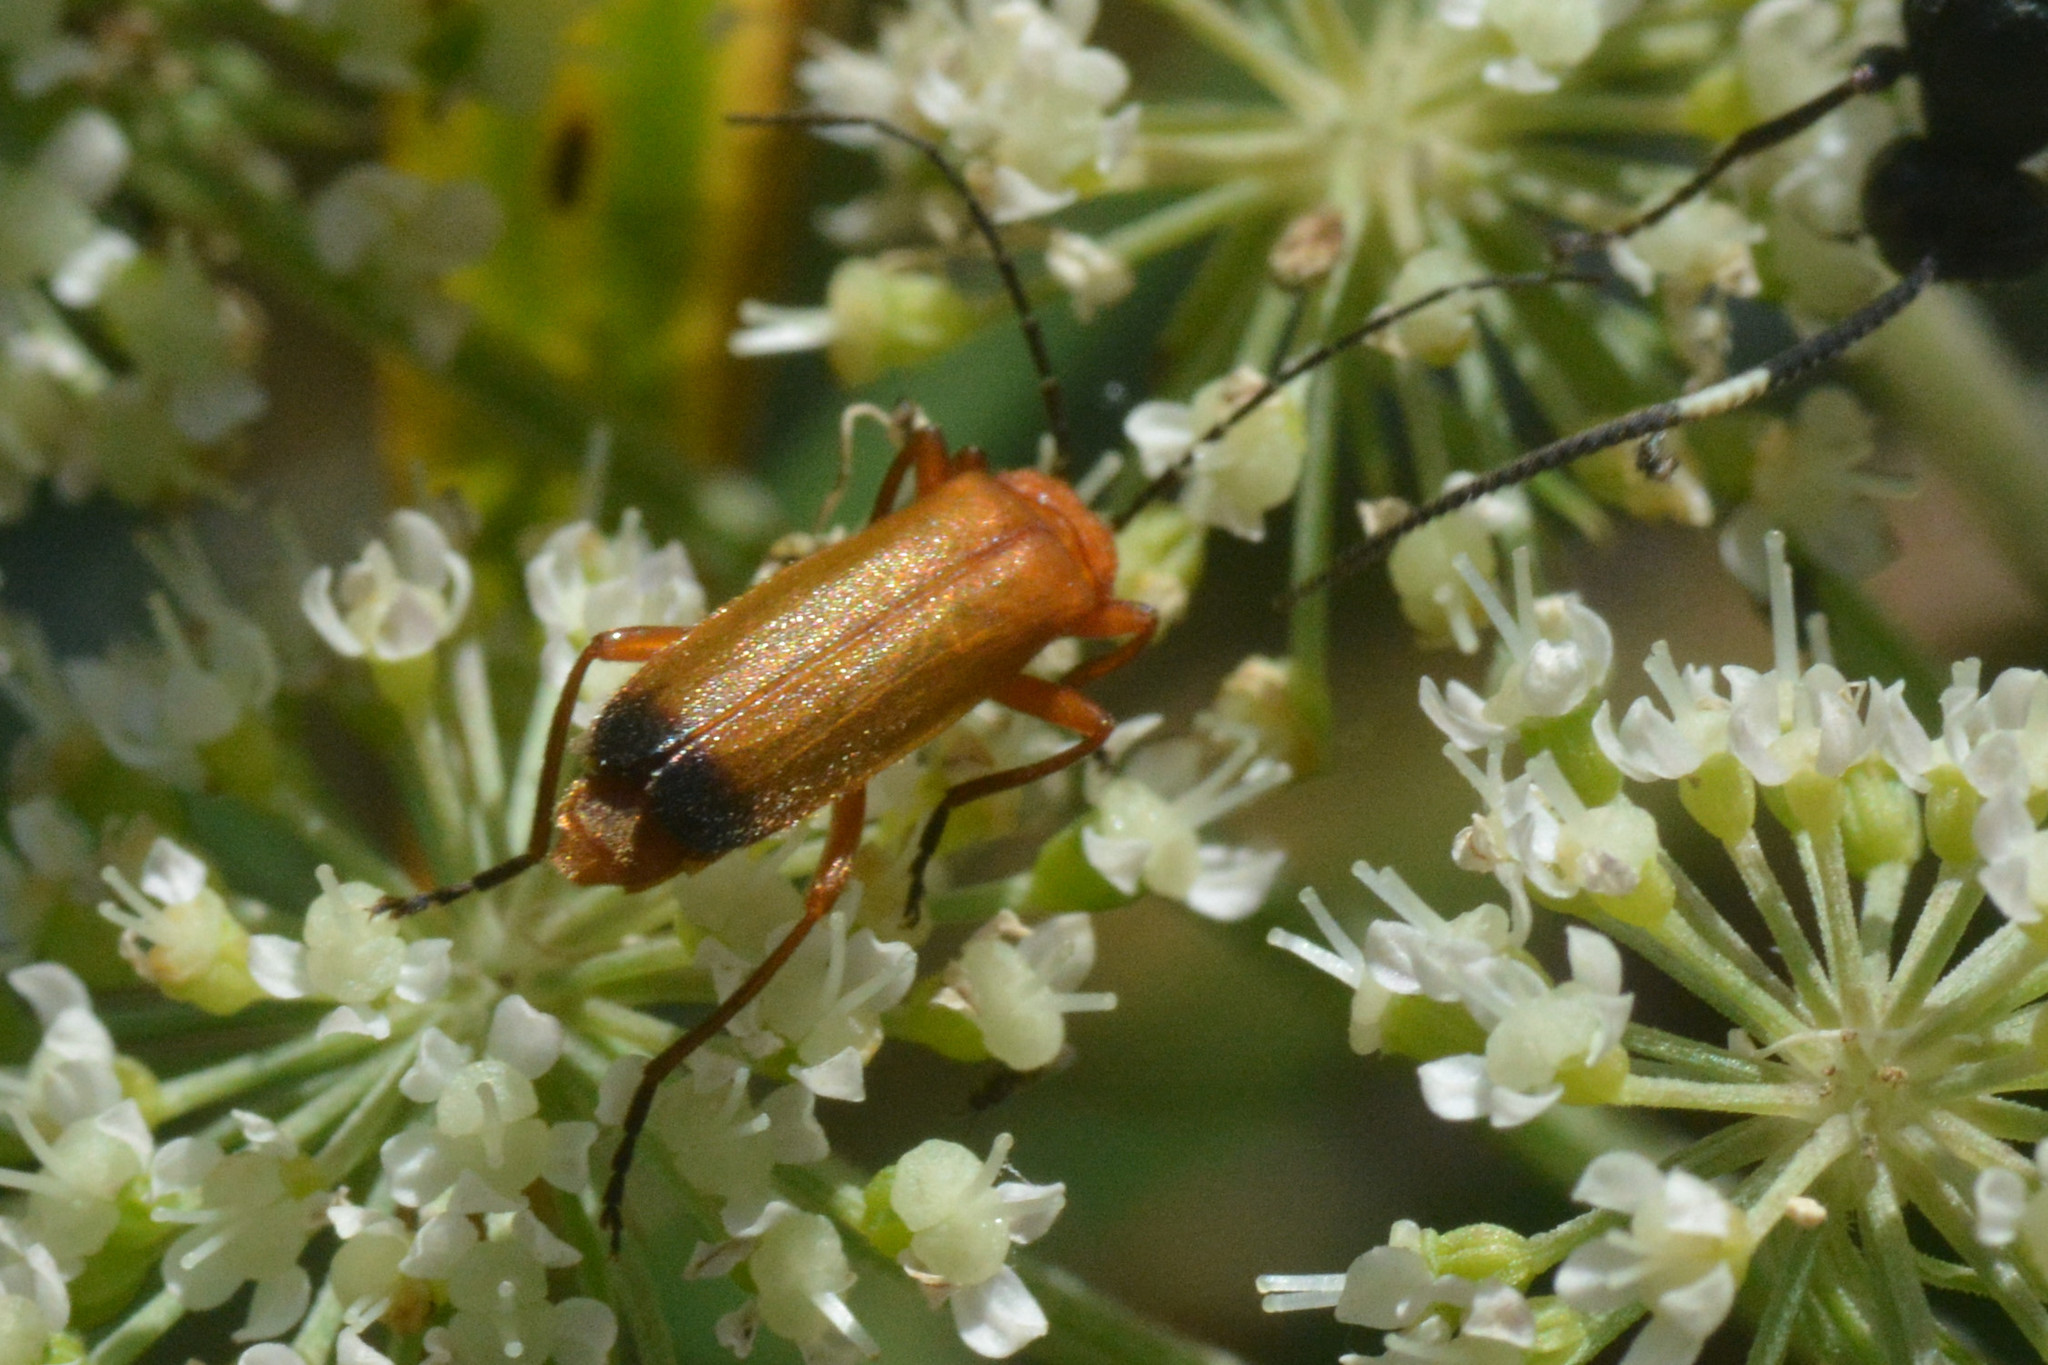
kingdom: Animalia
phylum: Arthropoda
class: Insecta
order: Coleoptera
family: Cantharidae
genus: Rhagonycha
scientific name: Rhagonycha fulva
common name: Common red soldier beetle
